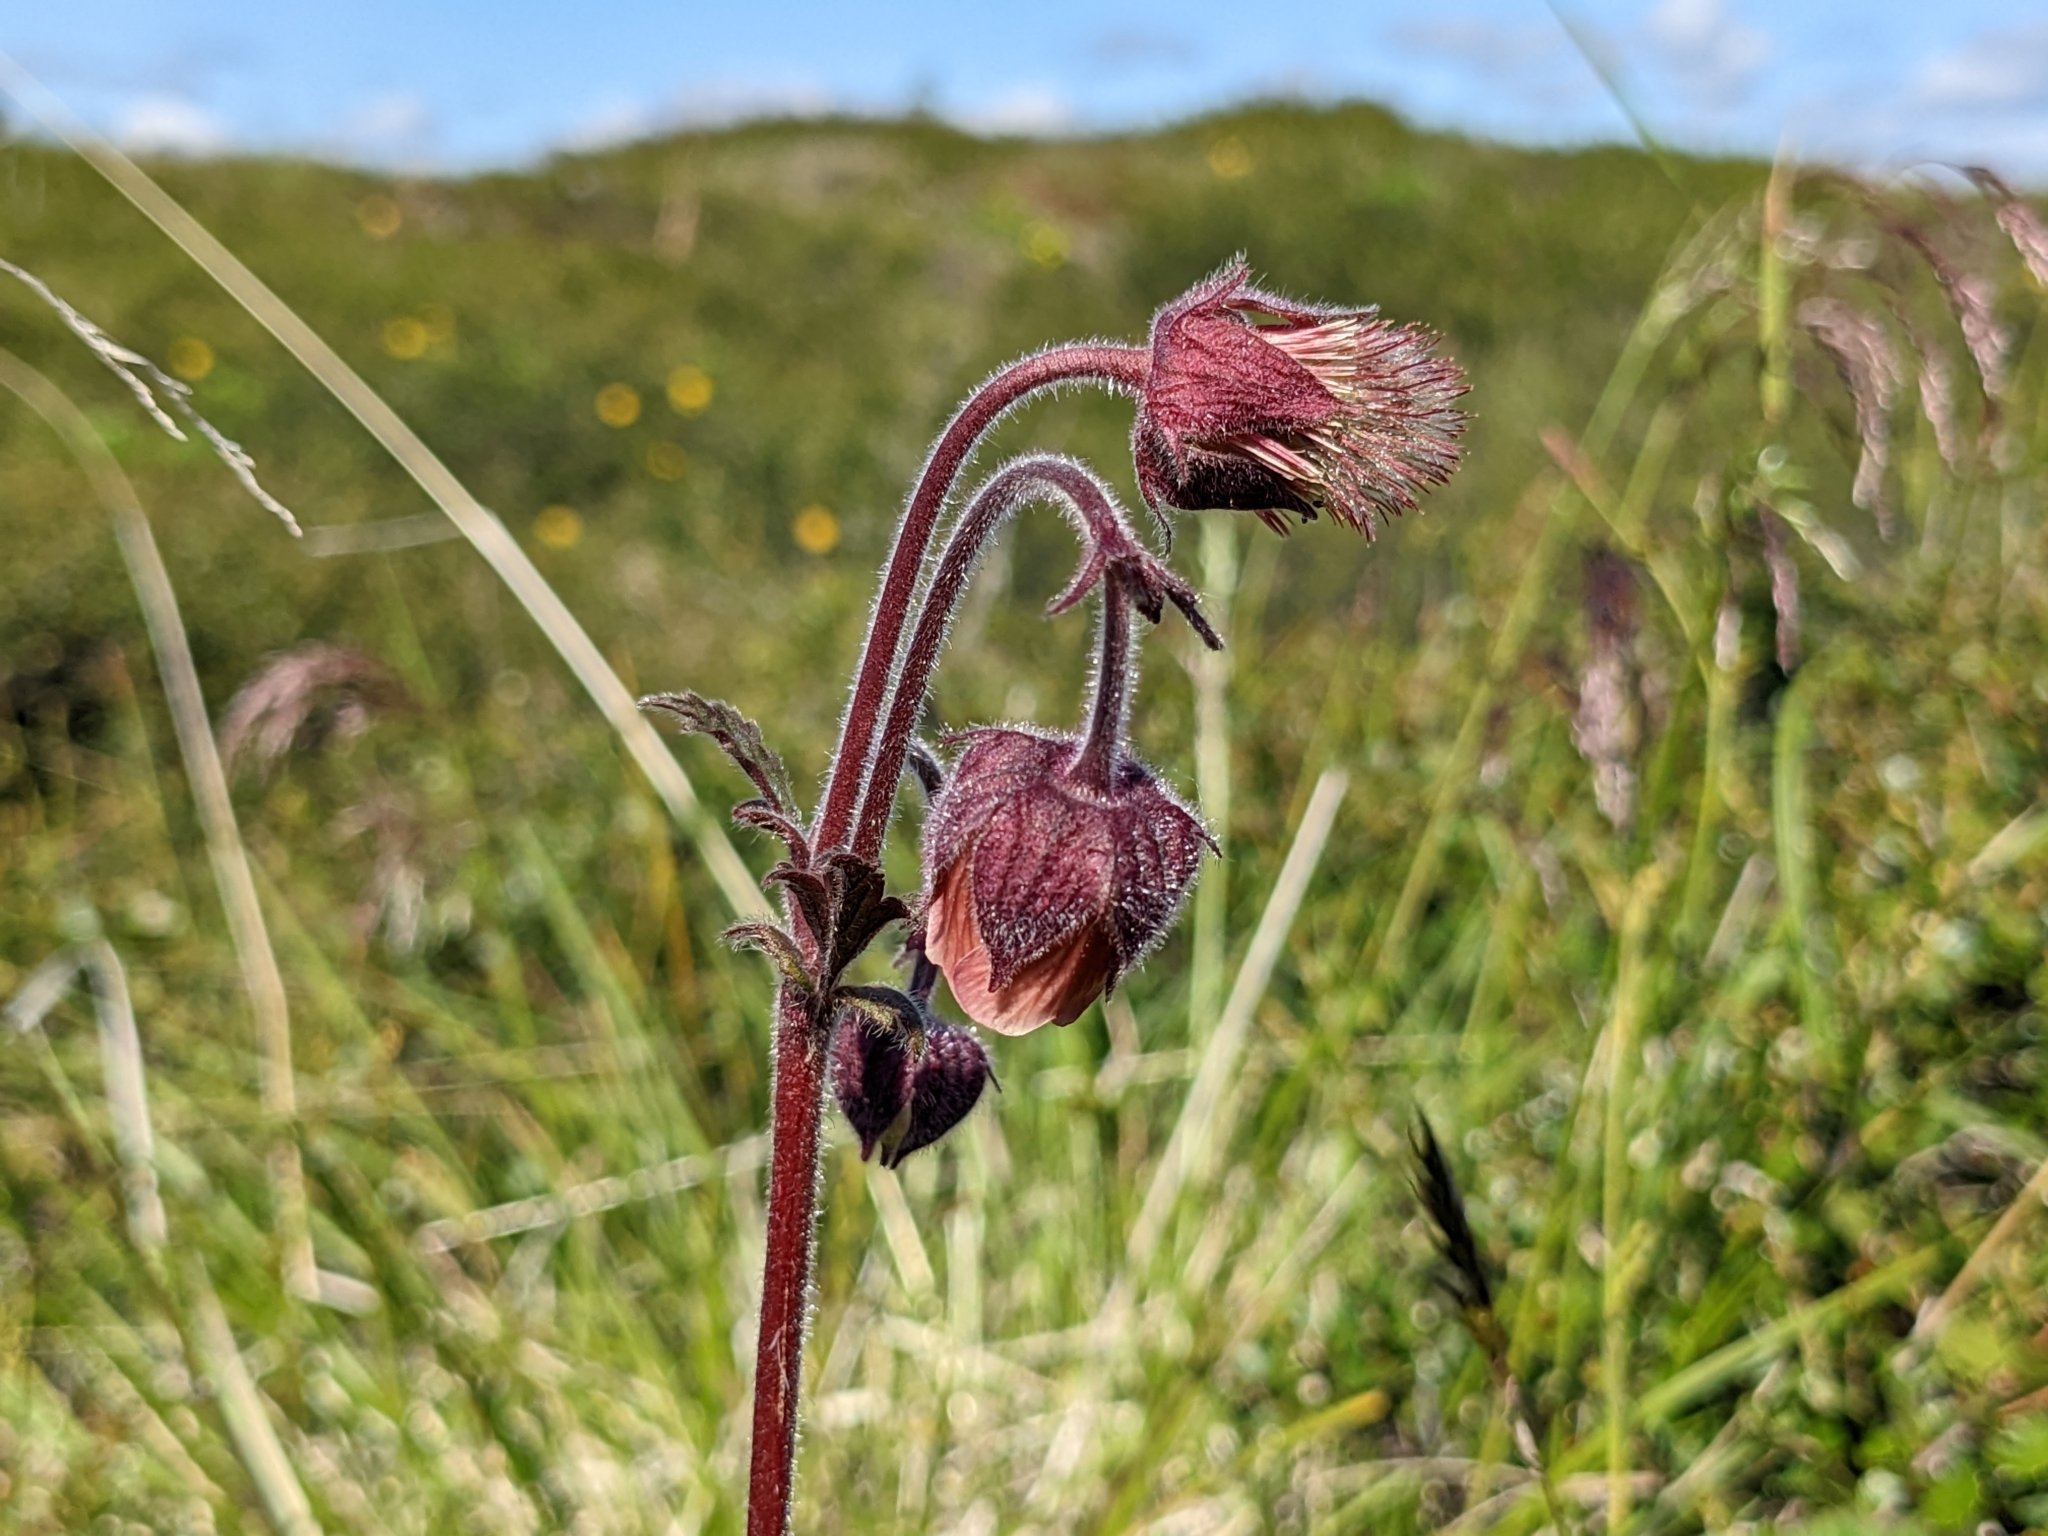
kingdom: Plantae
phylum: Tracheophyta
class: Magnoliopsida
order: Rosales
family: Rosaceae
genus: Geum
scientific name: Geum rivale
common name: Water avens
